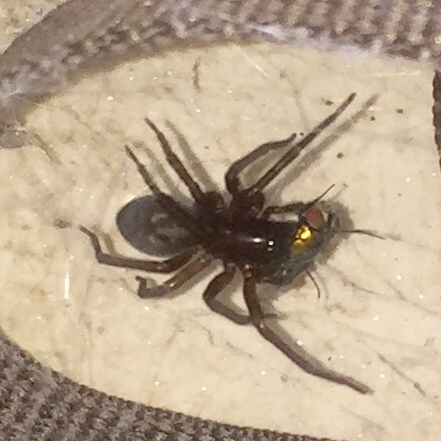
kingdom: Animalia
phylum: Arthropoda
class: Arachnida
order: Araneae
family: Amaurobiidae
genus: Amaurobius
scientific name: Amaurobius ferox
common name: Black laceweaver
